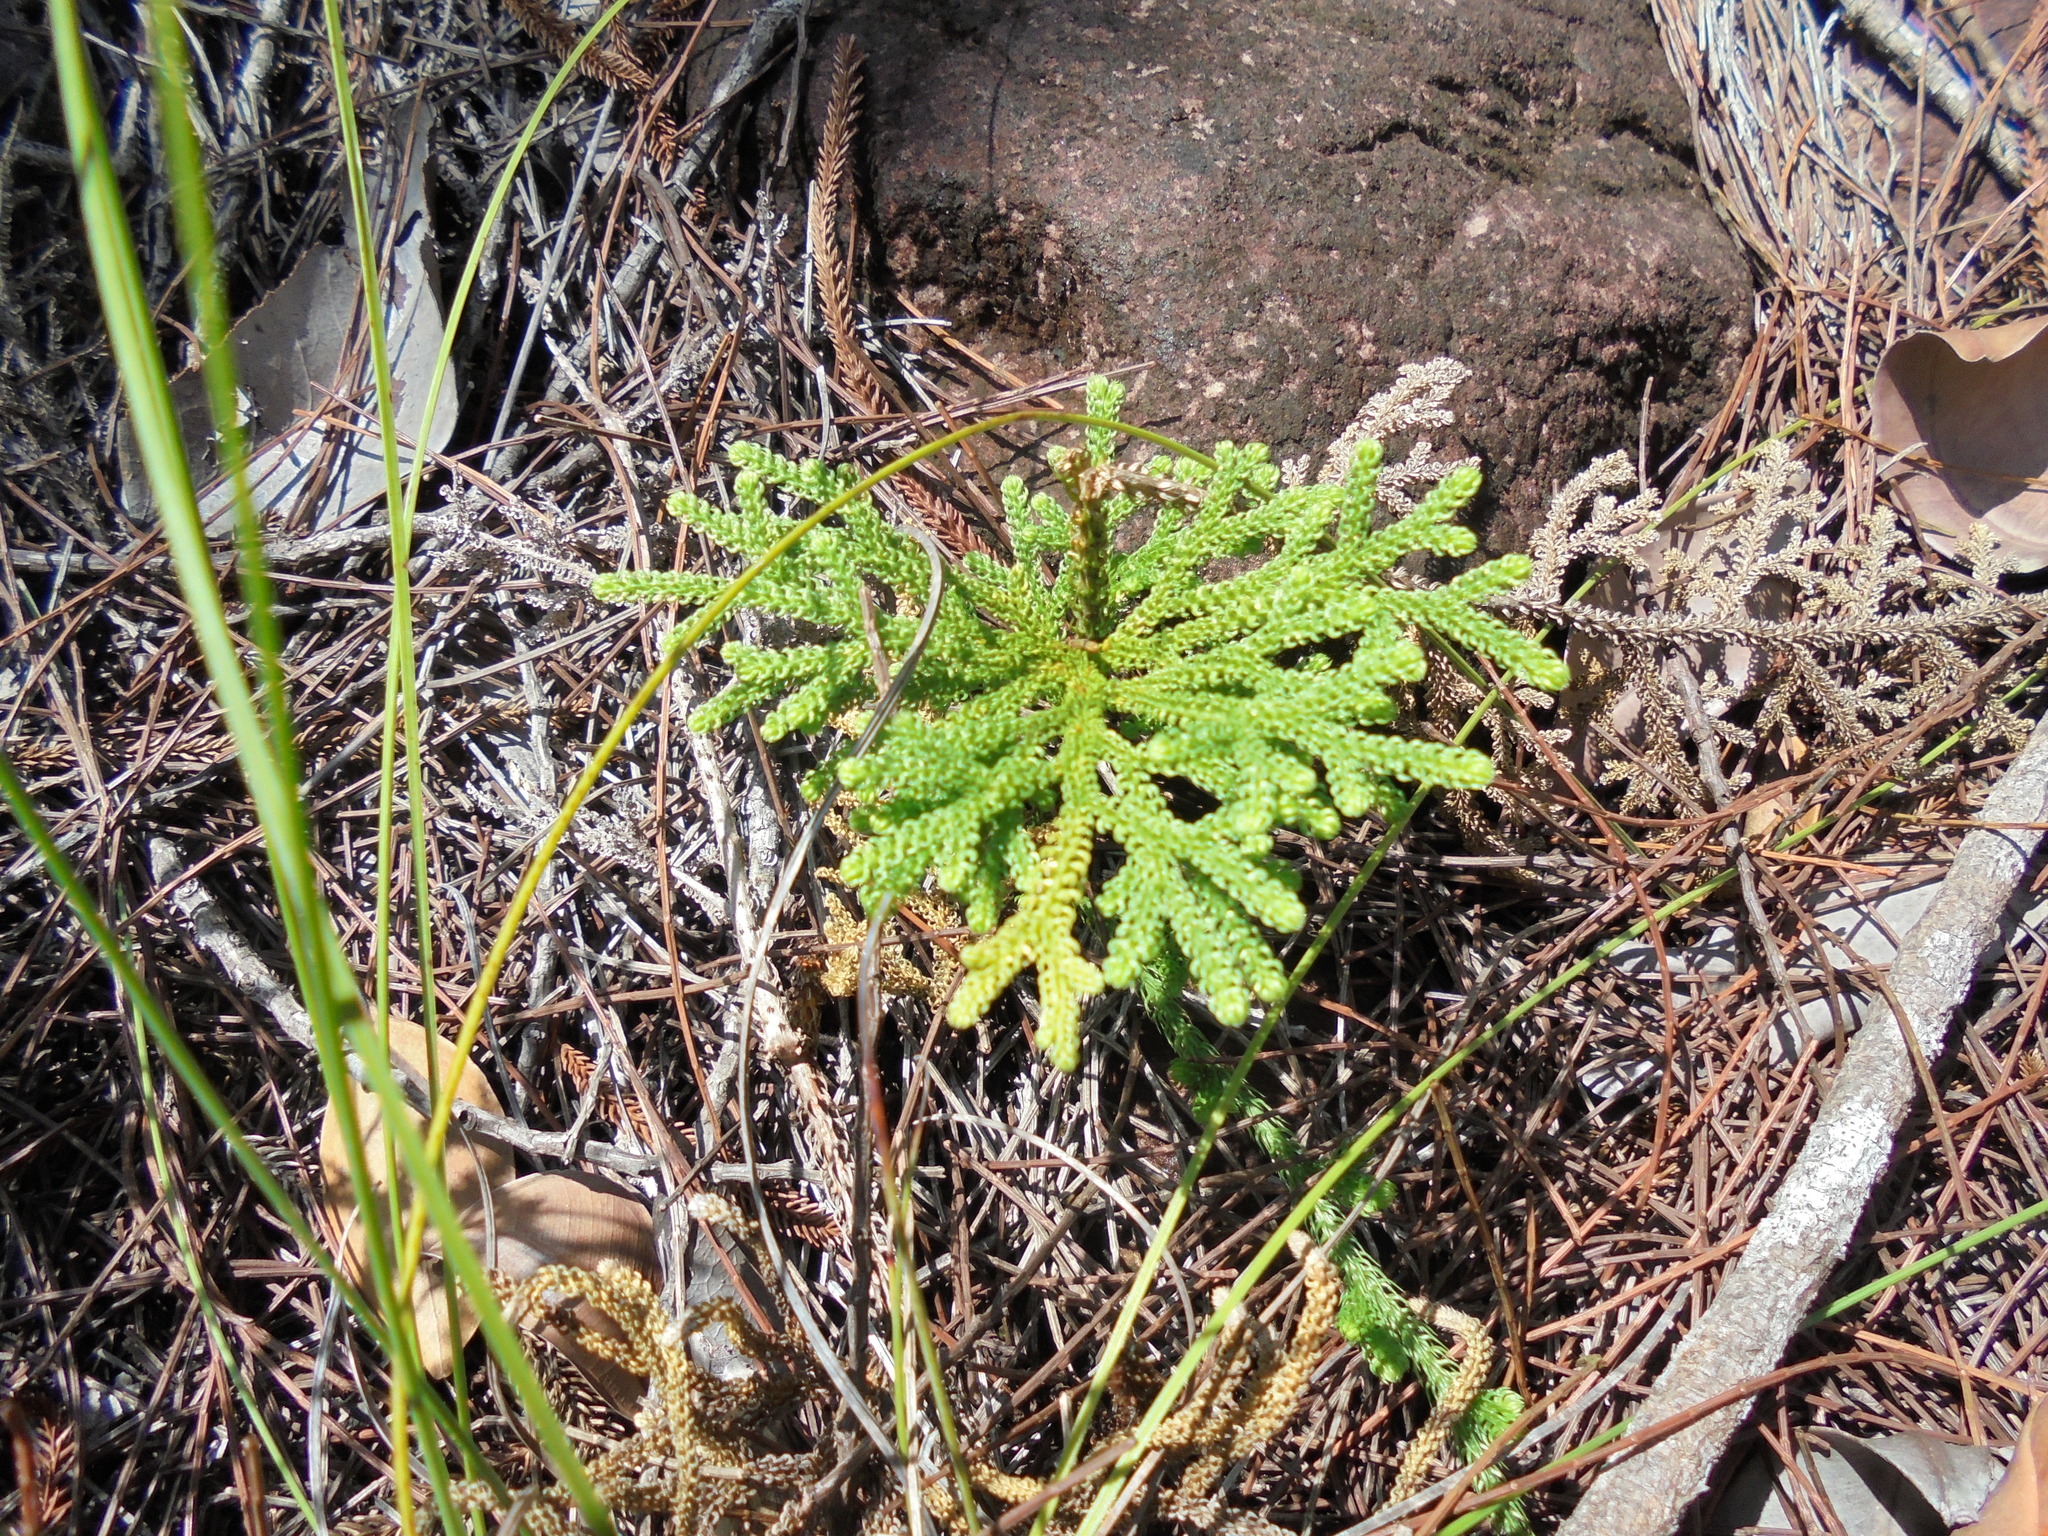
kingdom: Plantae
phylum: Tracheophyta
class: Lycopodiopsida
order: Lycopodiales
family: Lycopodiaceae
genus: Palhinhaea
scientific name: Palhinhaea cernua
